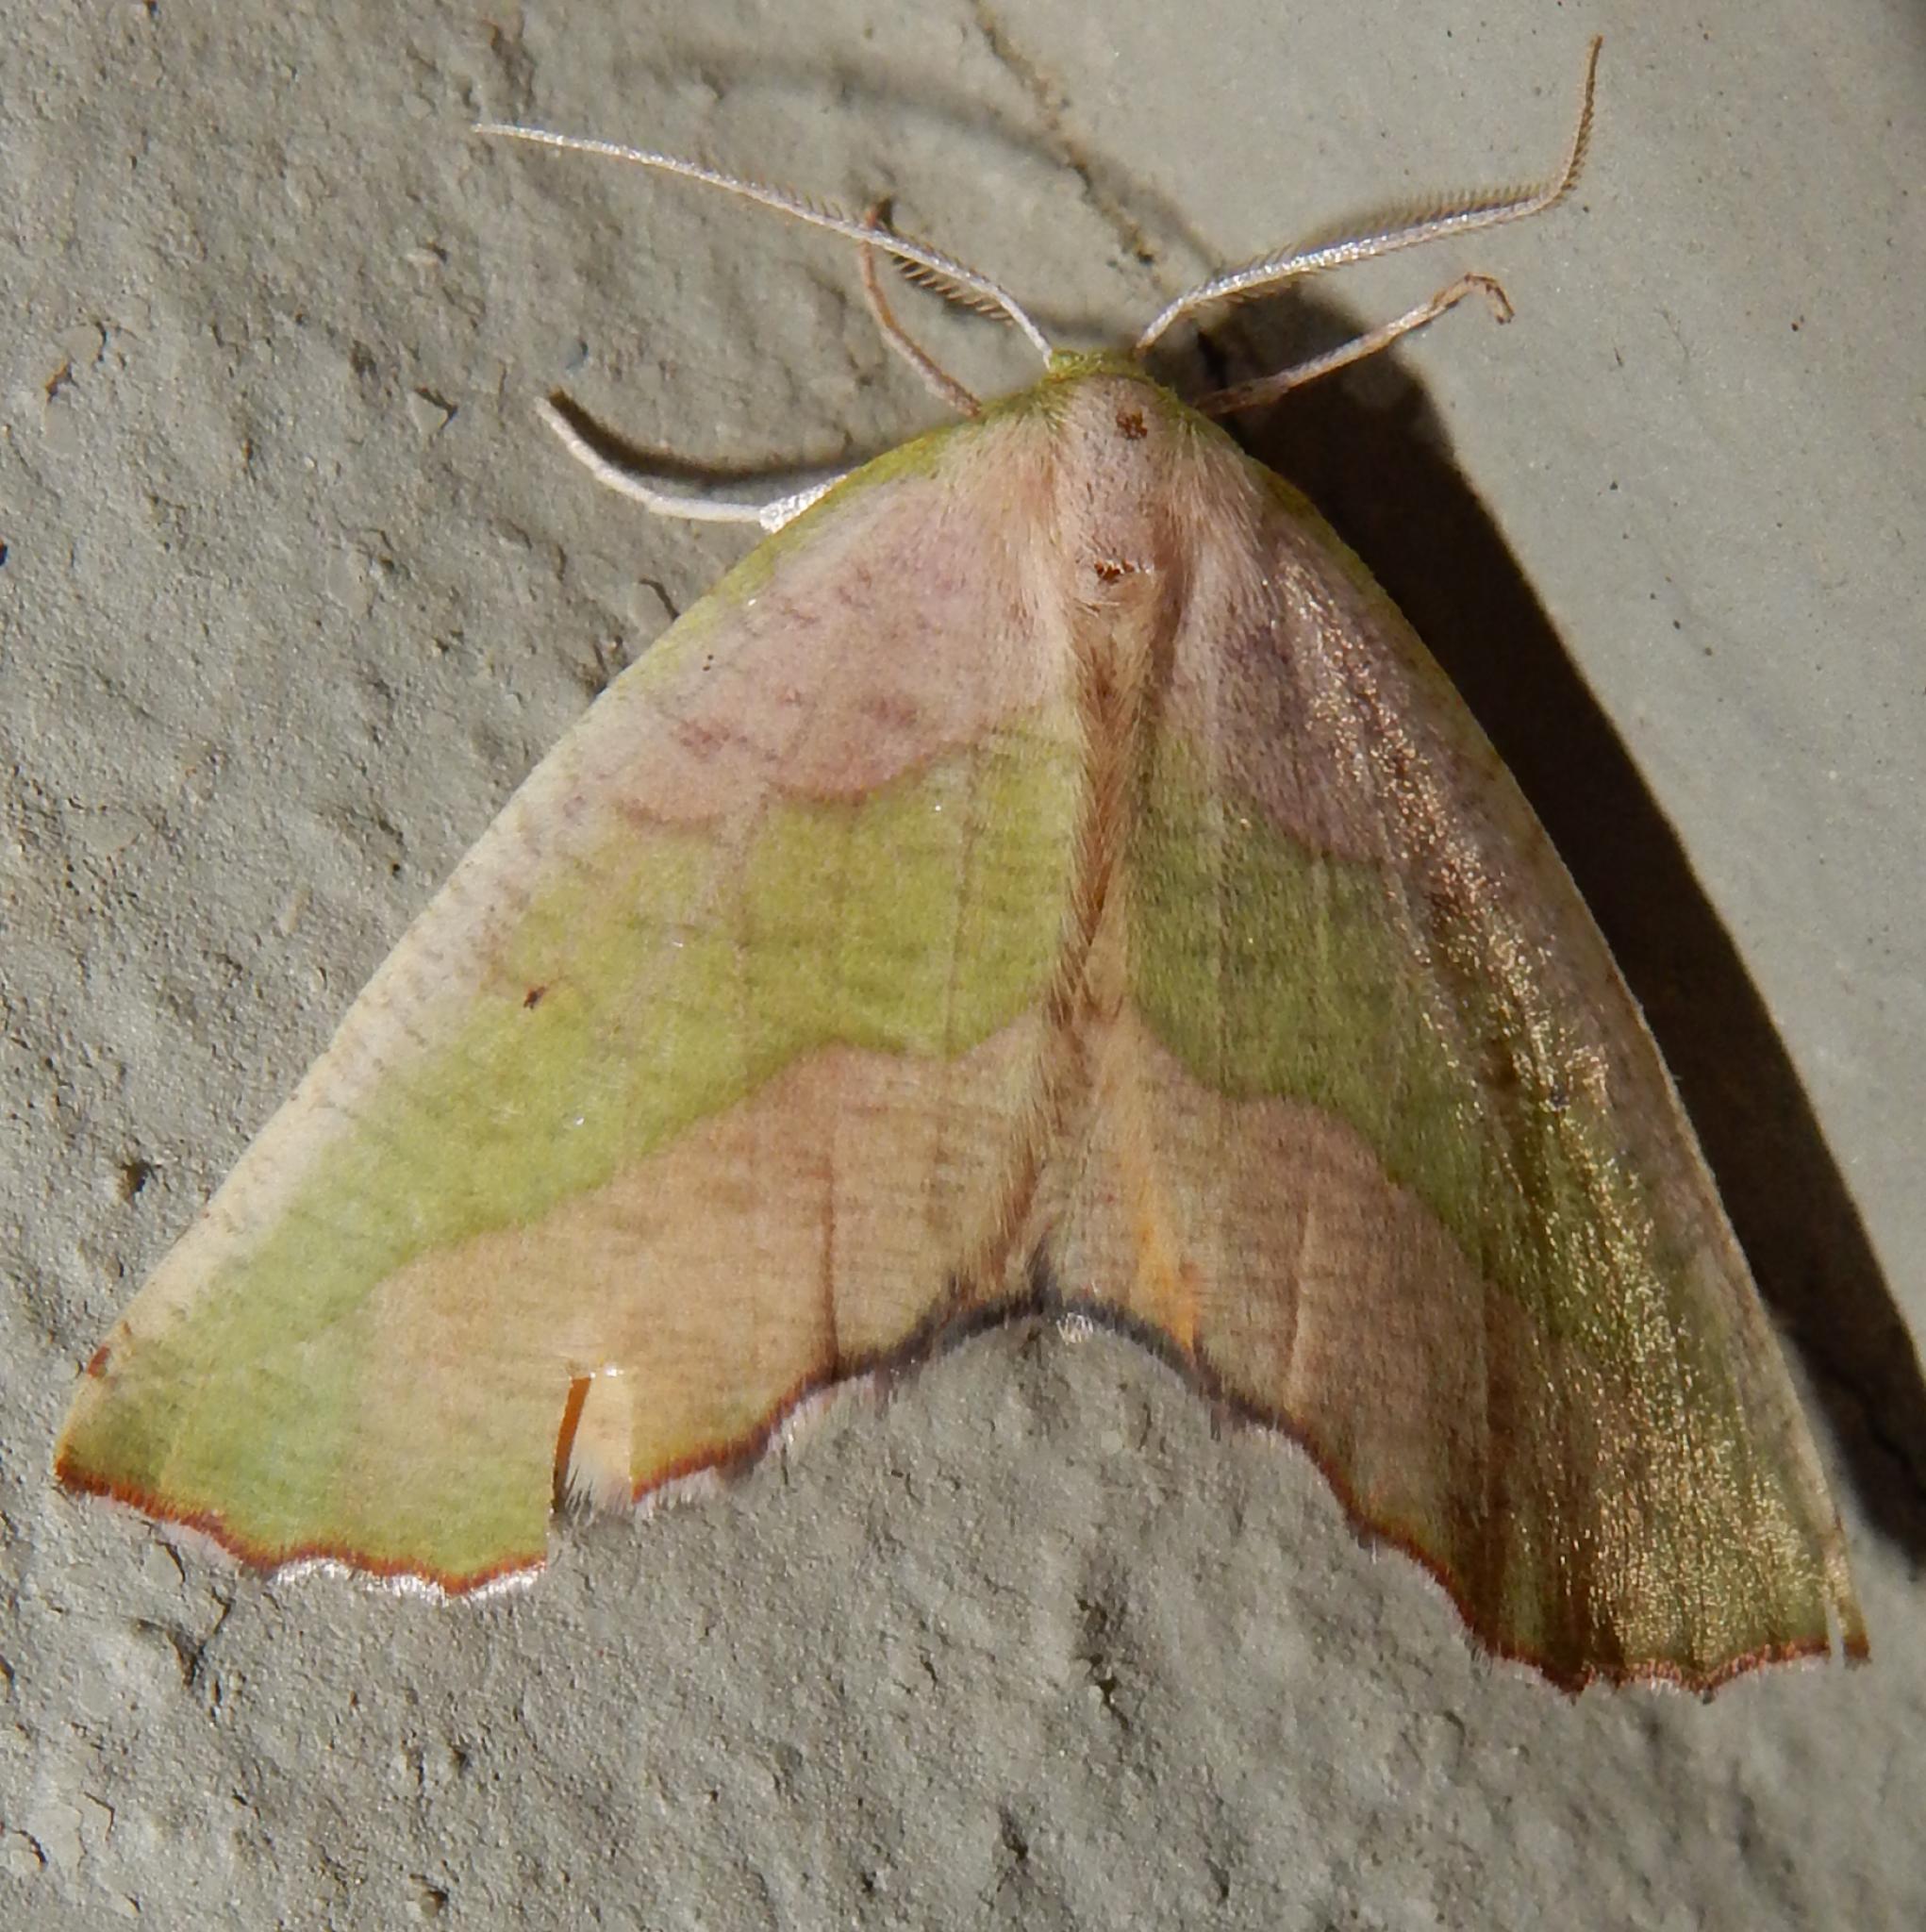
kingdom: Animalia
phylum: Arthropoda
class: Insecta
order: Lepidoptera
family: Geometridae
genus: Sicyodes
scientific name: Sicyodes olivescens
